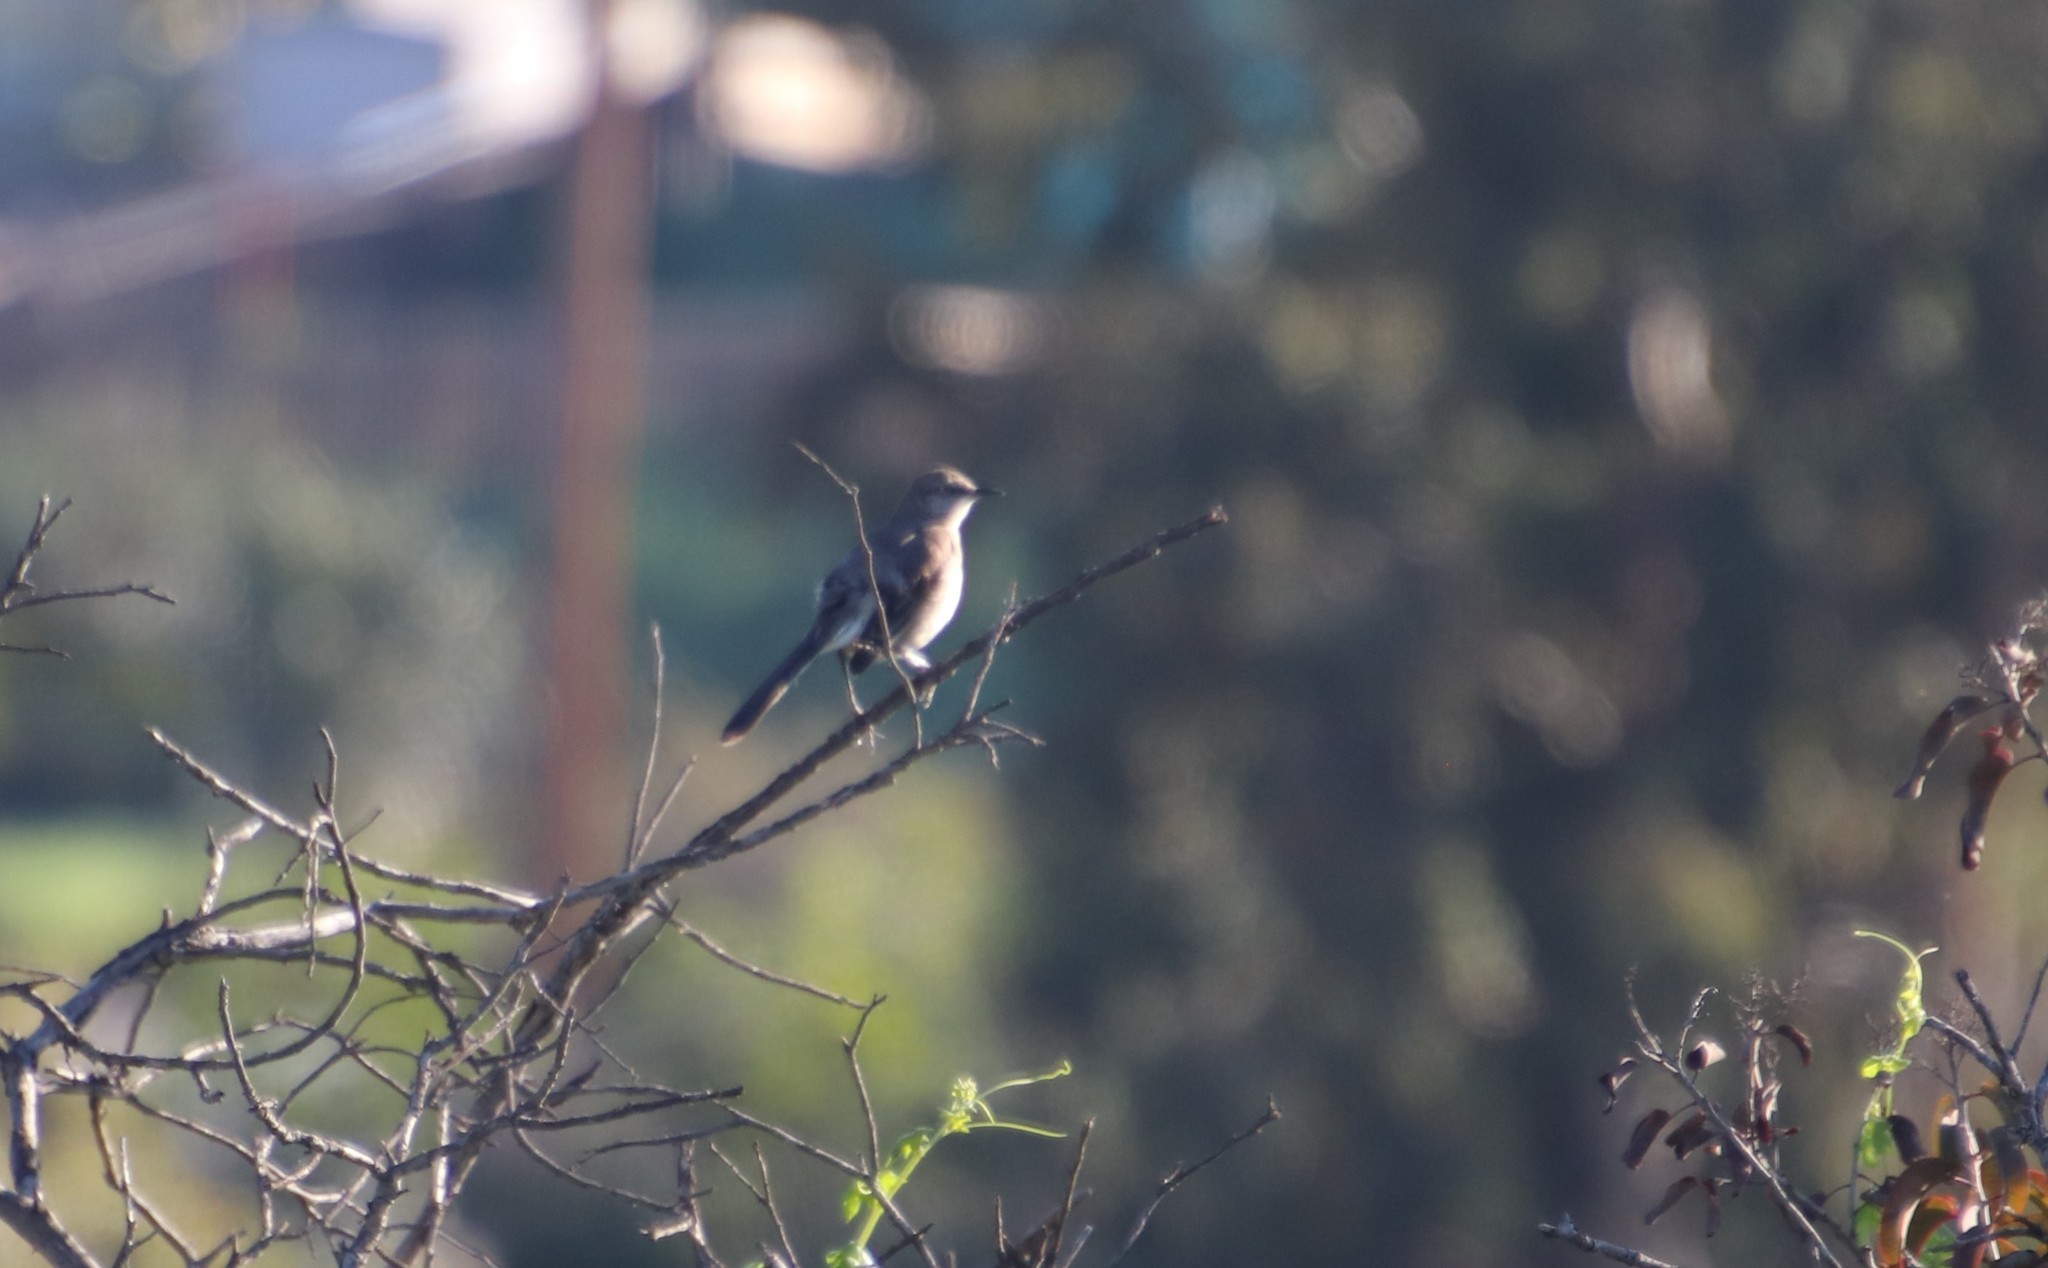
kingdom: Animalia
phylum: Chordata
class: Aves
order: Passeriformes
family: Mimidae
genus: Mimus
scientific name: Mimus polyglottos
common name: Northern mockingbird
